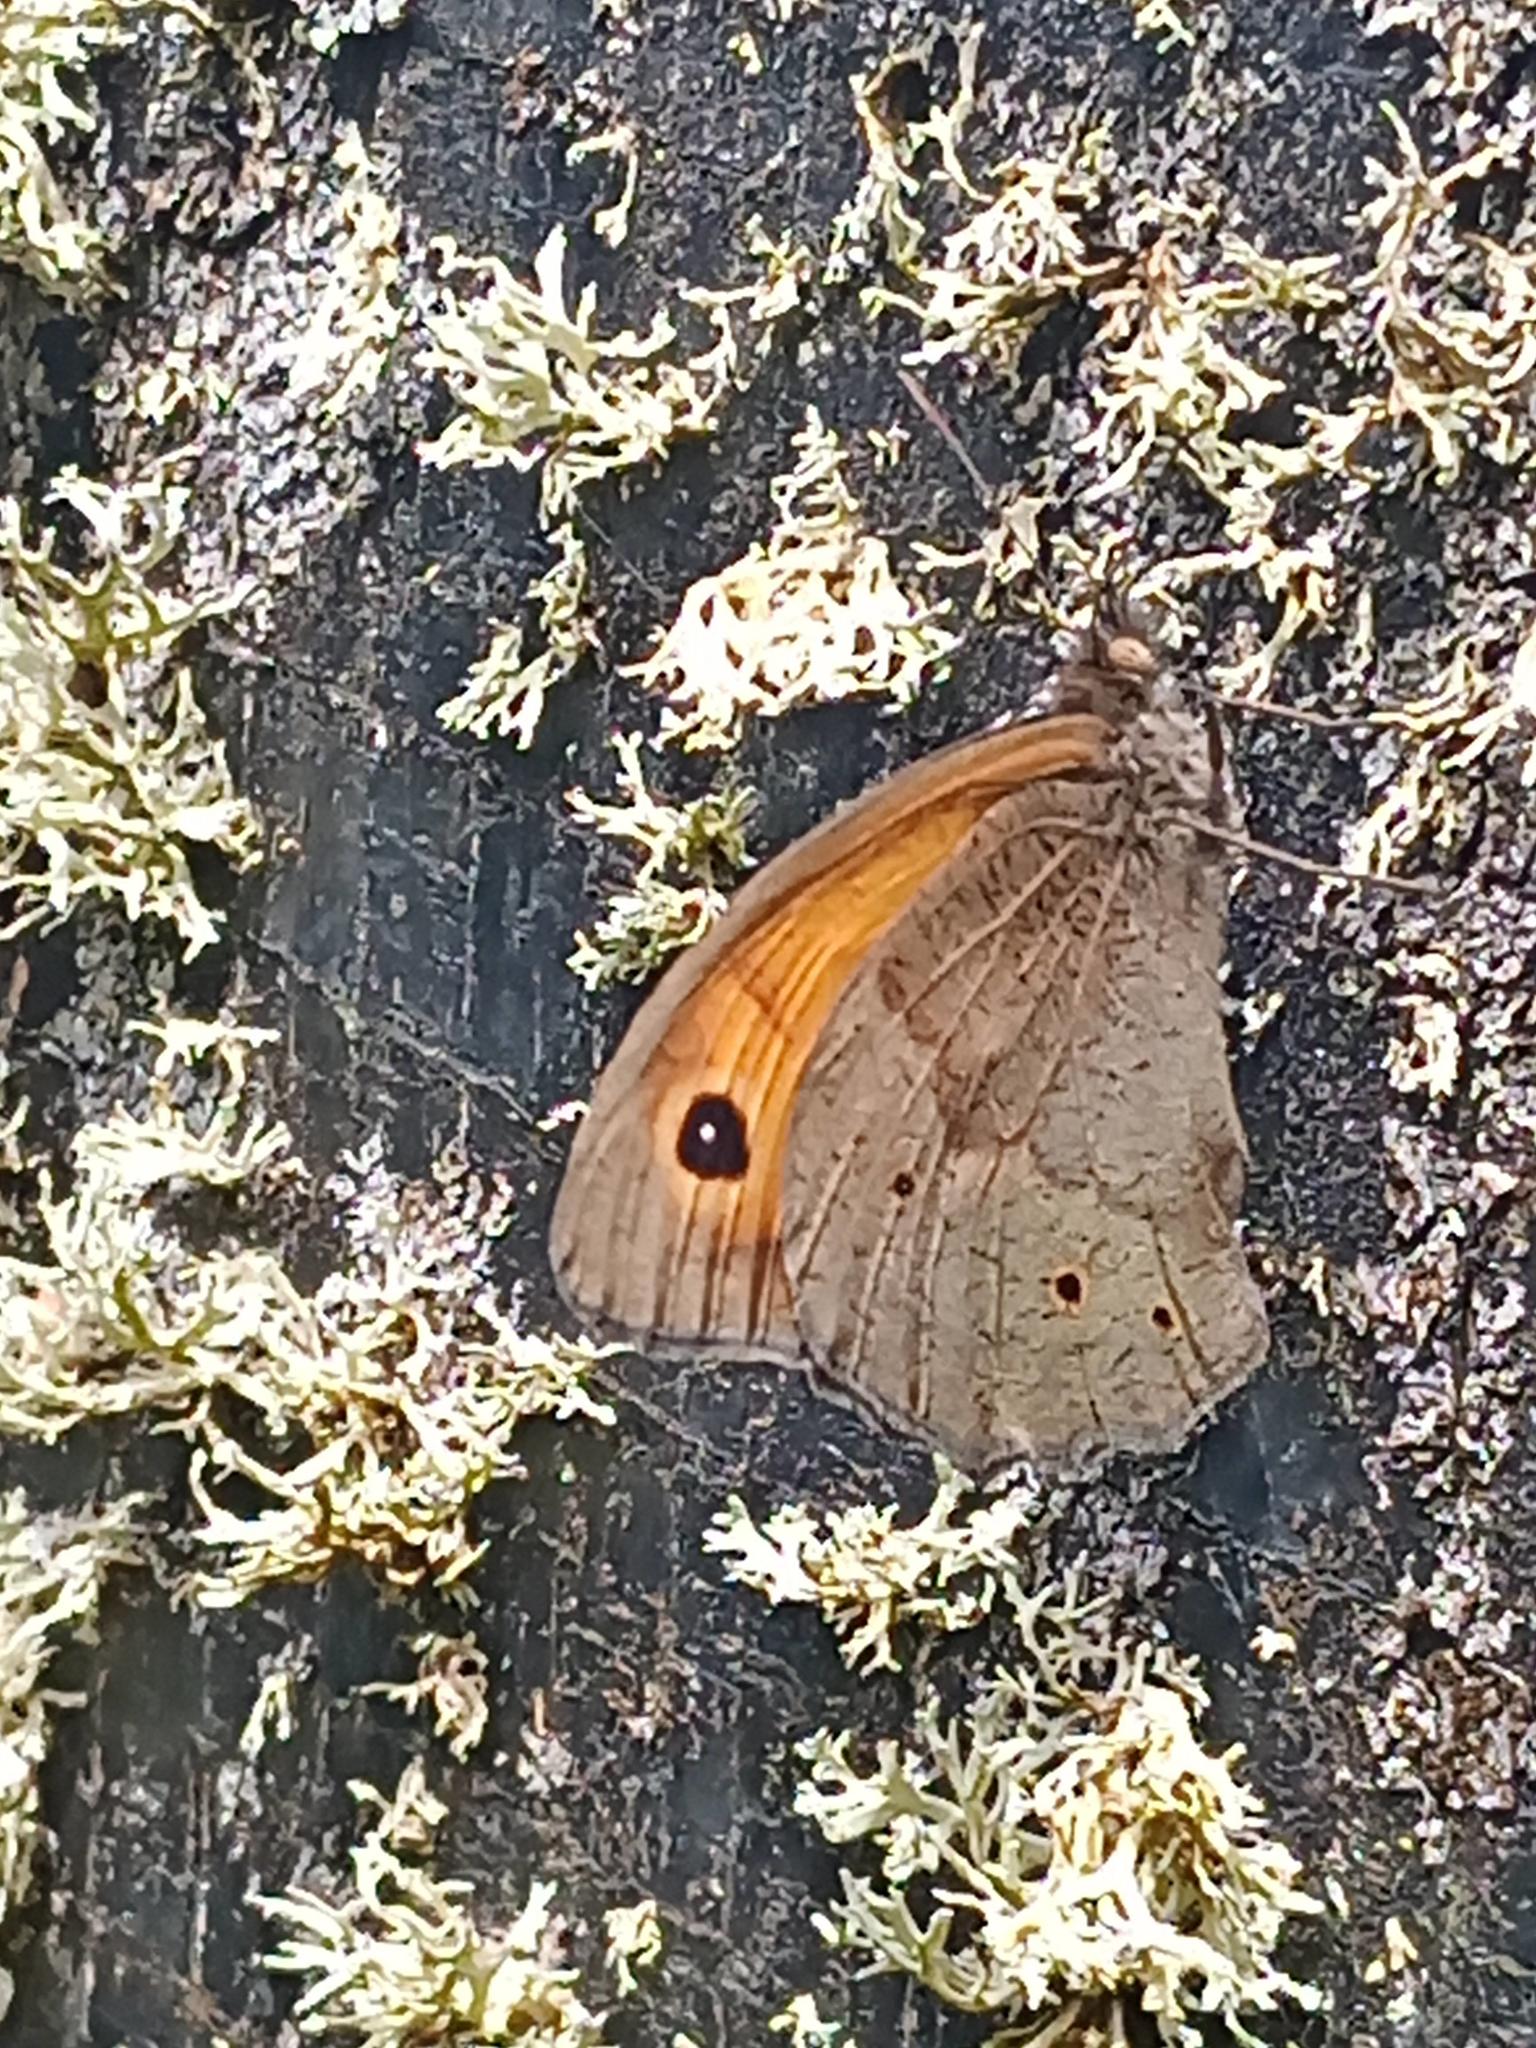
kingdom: Animalia
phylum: Arthropoda
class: Insecta
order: Lepidoptera
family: Nymphalidae
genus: Maniola
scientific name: Maniola jurtina
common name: Meadow brown
